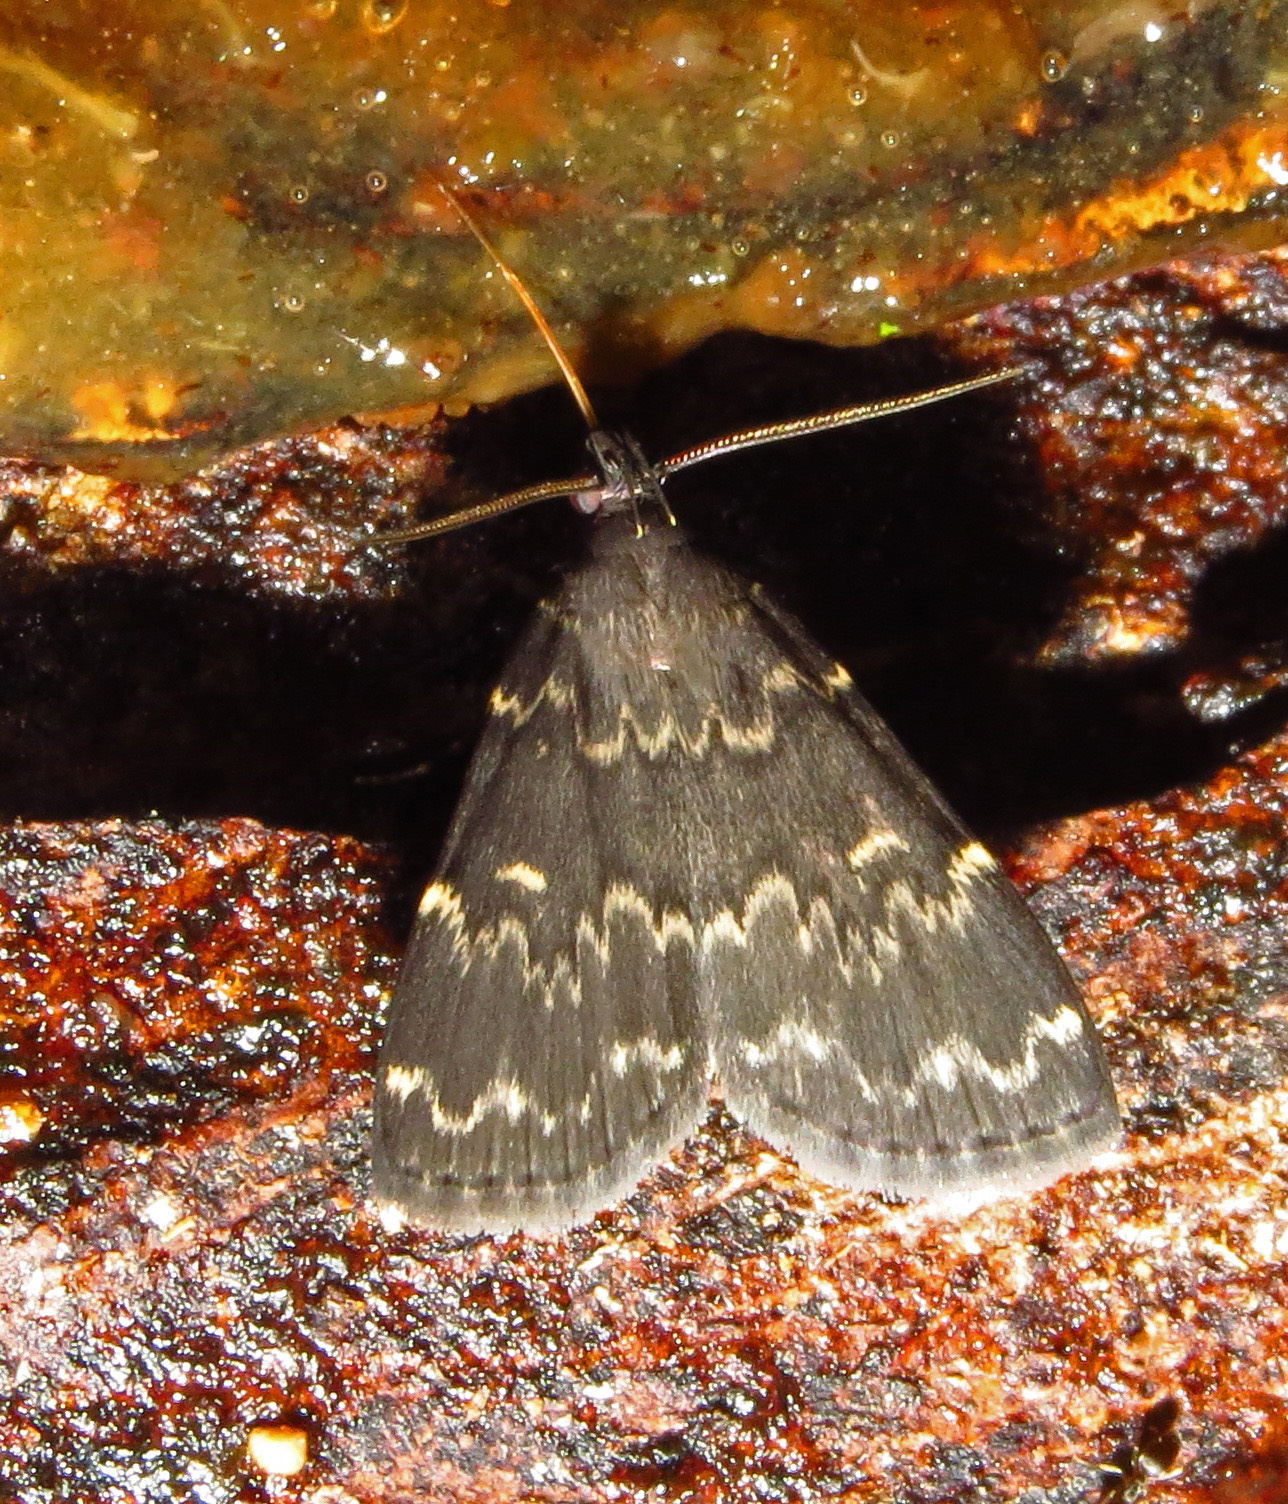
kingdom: Animalia
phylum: Arthropoda
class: Insecta
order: Lepidoptera
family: Erebidae
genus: Idia
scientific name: Idia lubricalis
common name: Twin-striped tabby
